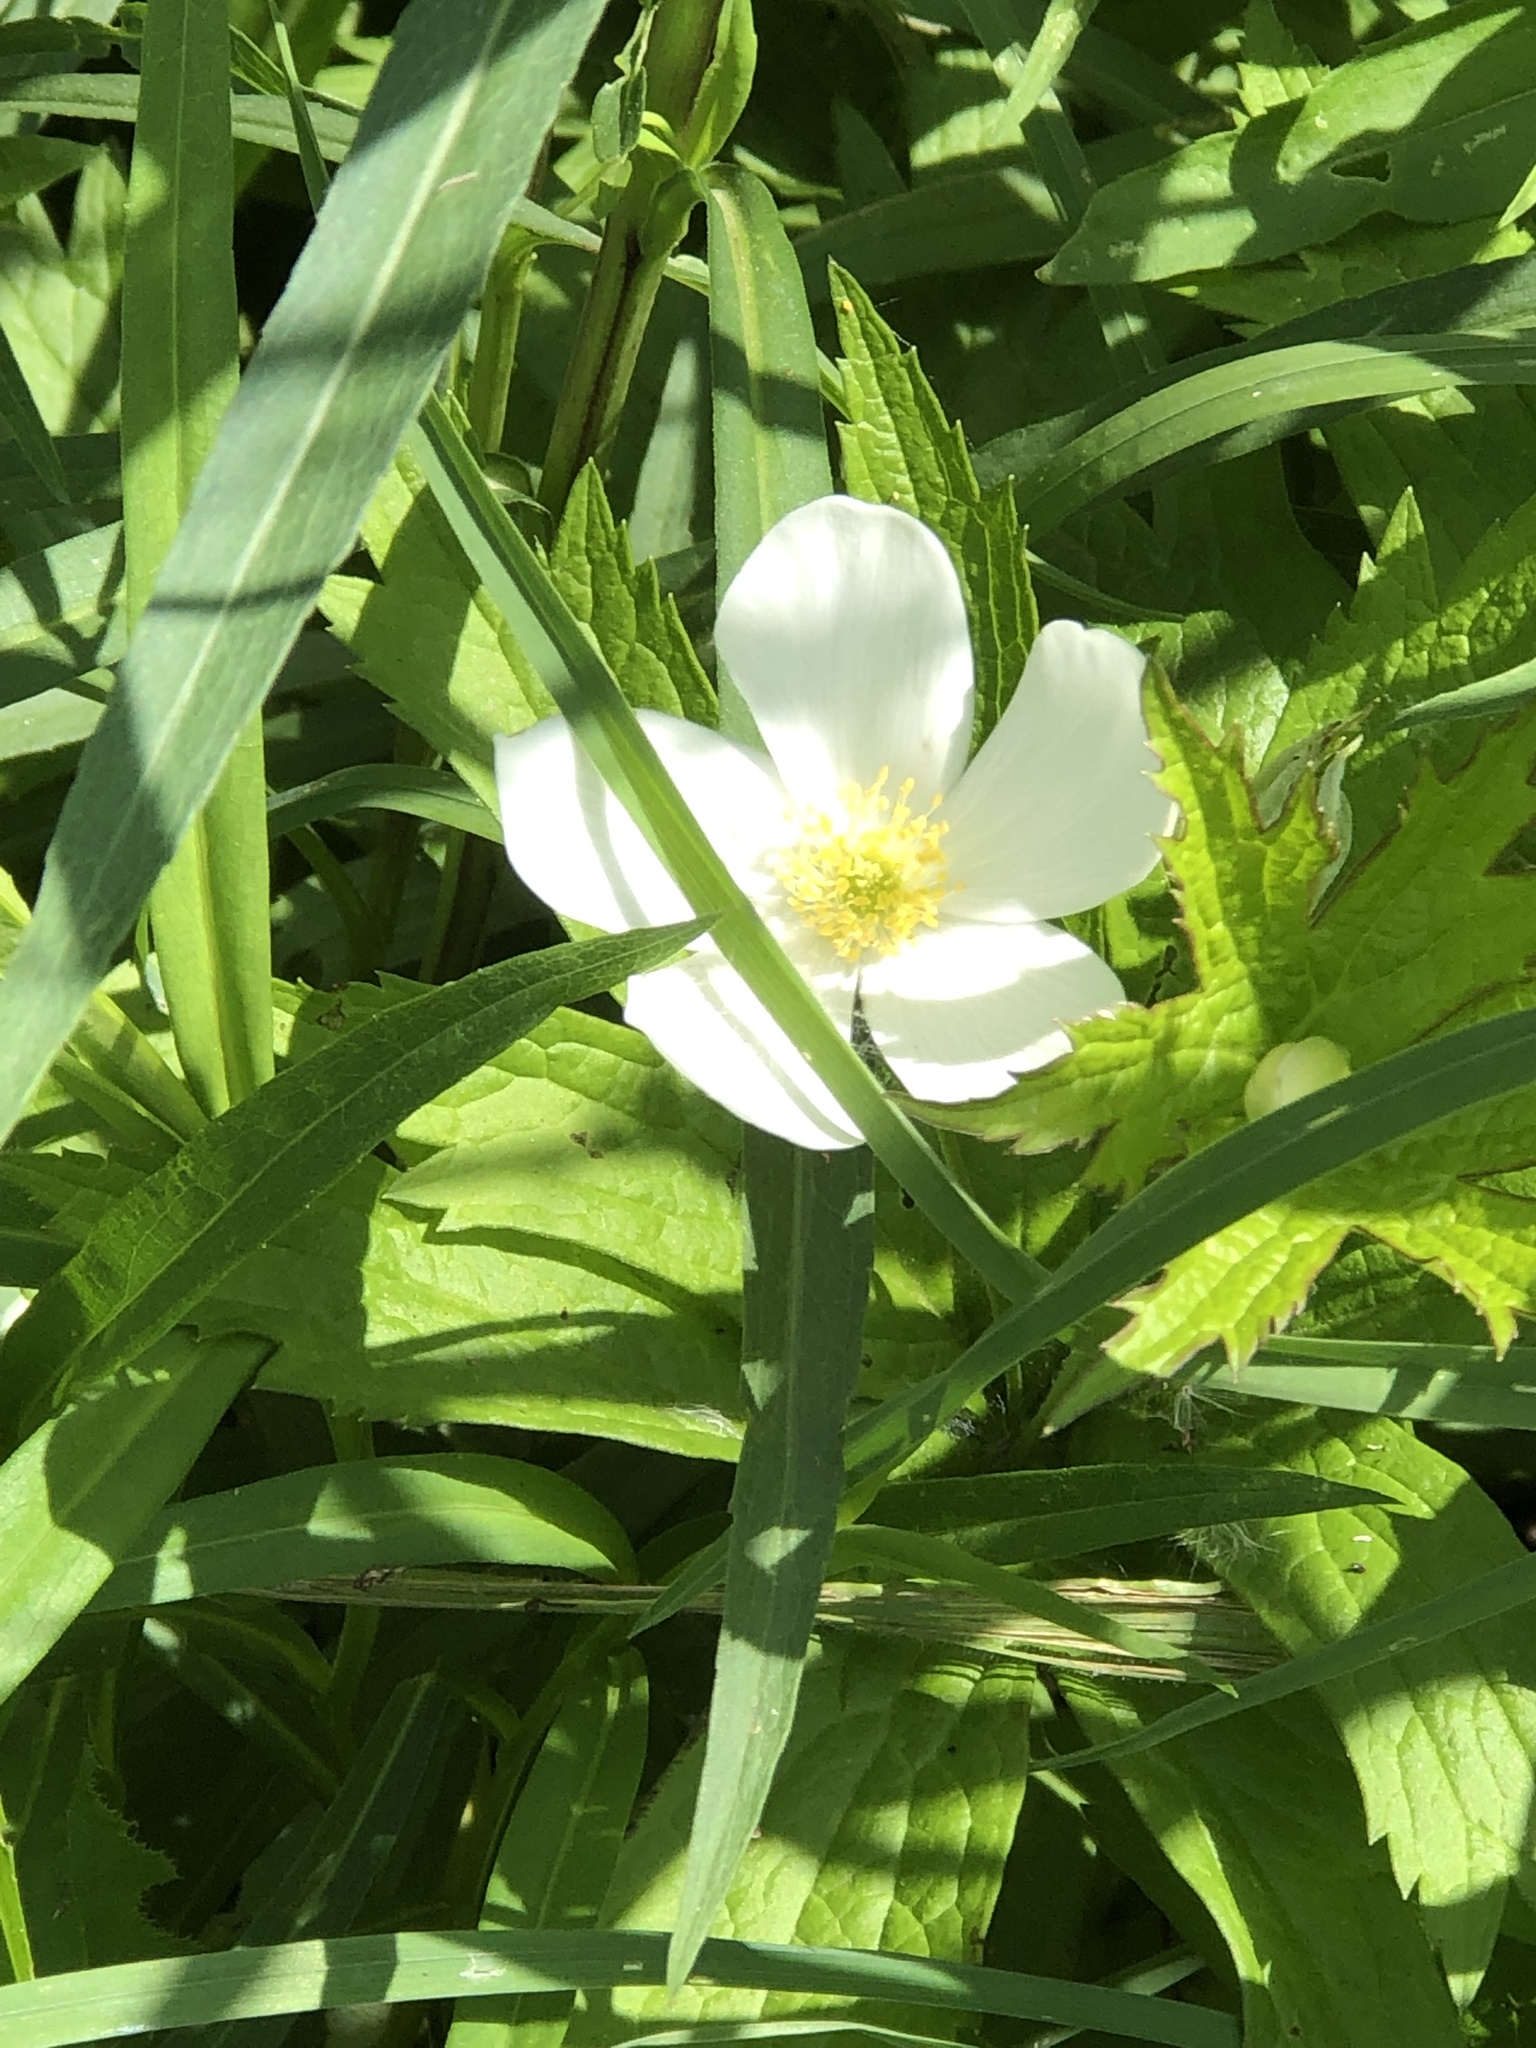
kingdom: Plantae
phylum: Tracheophyta
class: Magnoliopsida
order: Ranunculales
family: Ranunculaceae
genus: Anemonastrum
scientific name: Anemonastrum canadense
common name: Canada anemone
